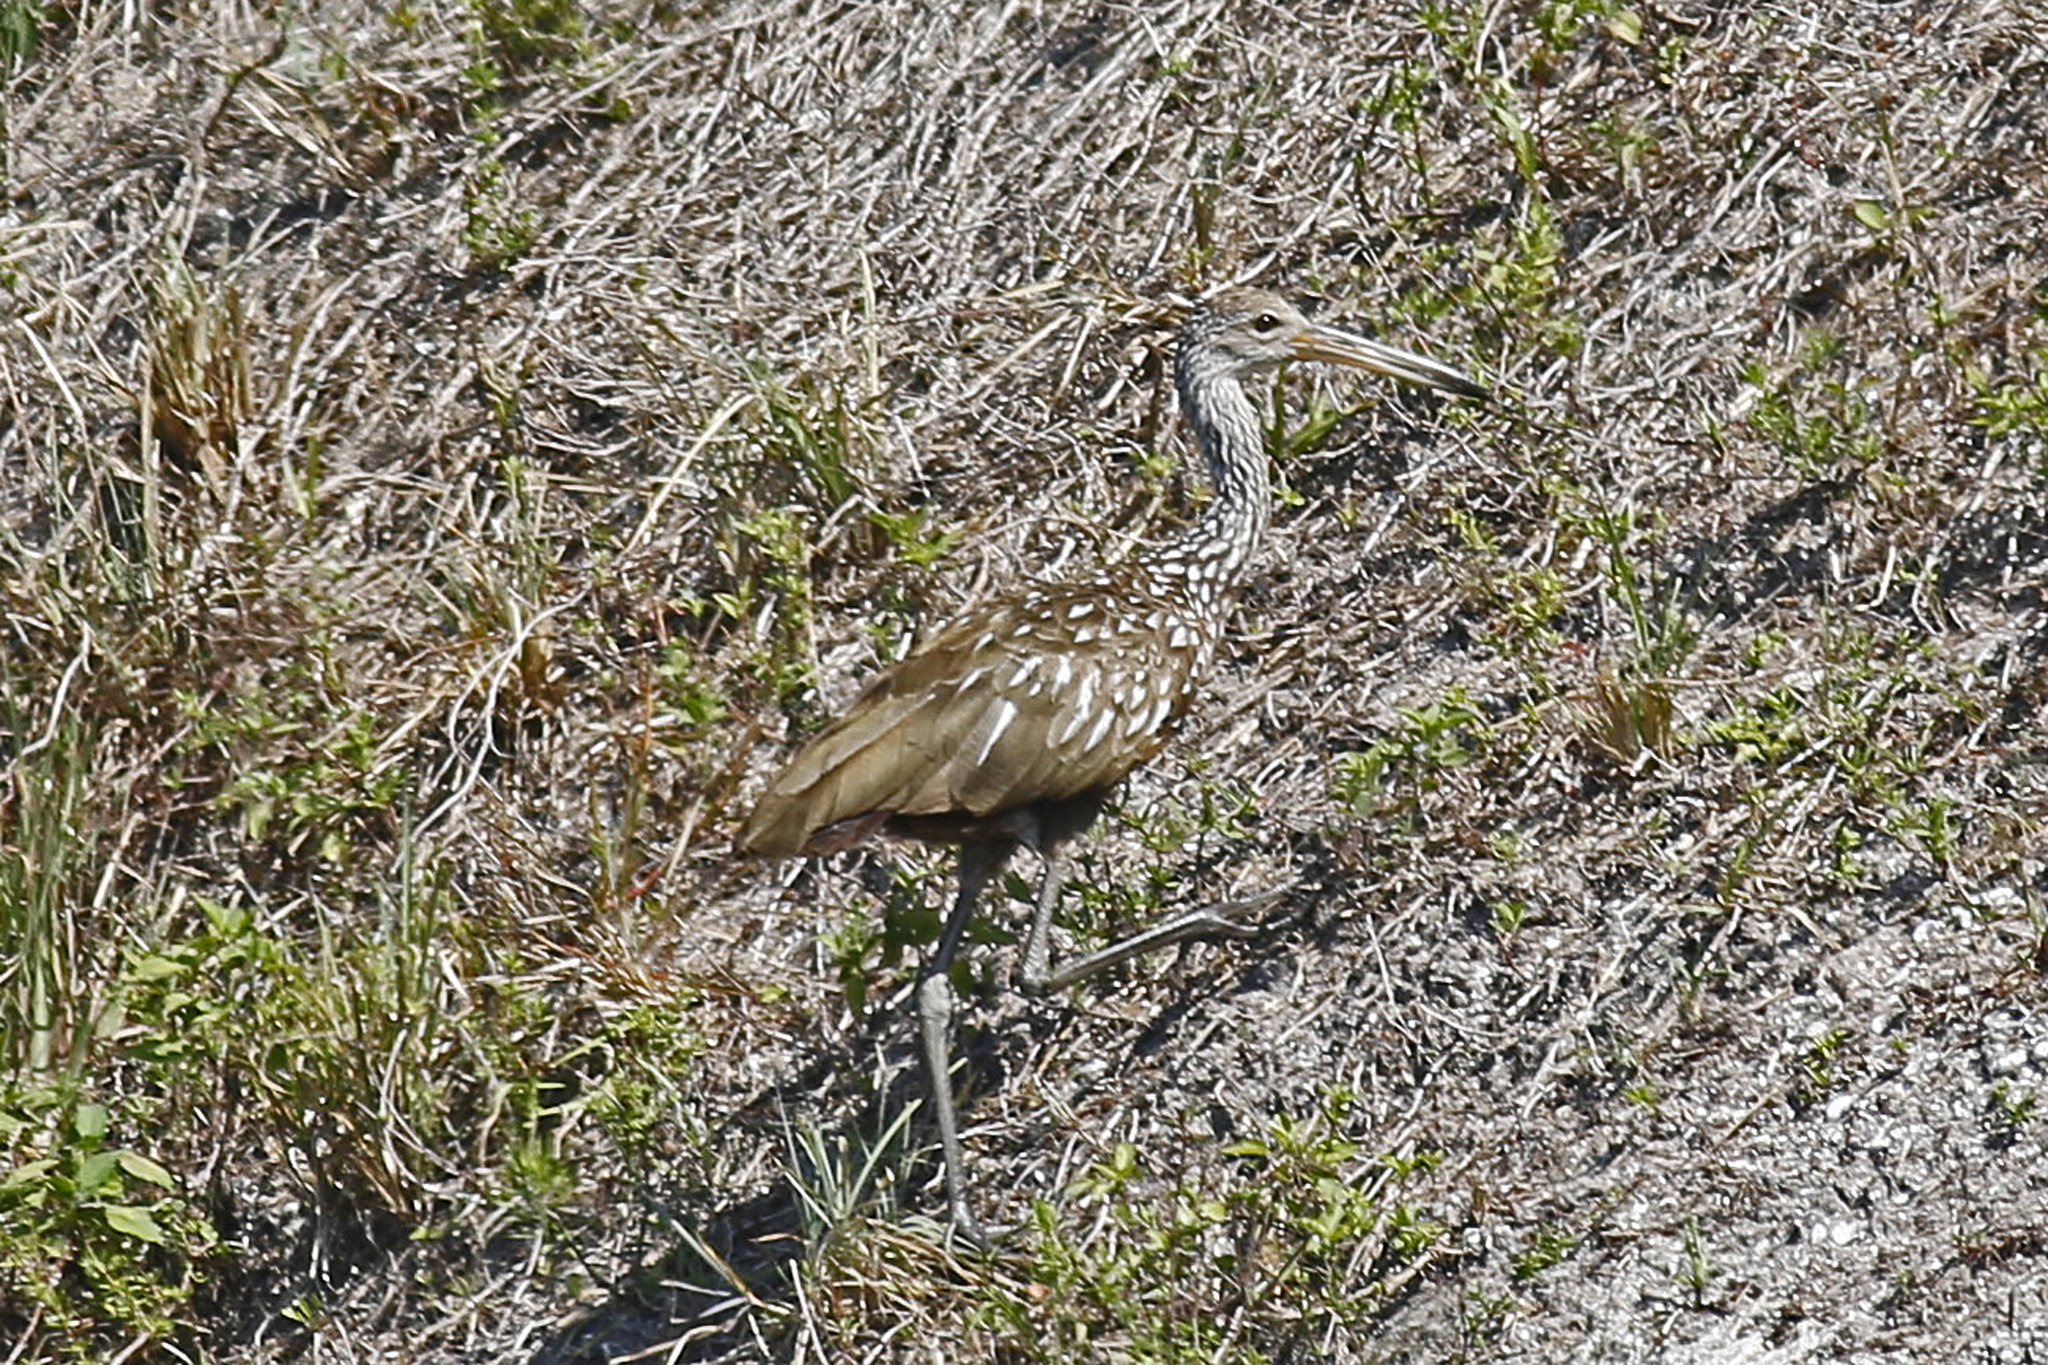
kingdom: Animalia
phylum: Chordata
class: Aves
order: Gruiformes
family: Aramidae
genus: Aramus
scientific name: Aramus guarauna
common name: Limpkin
